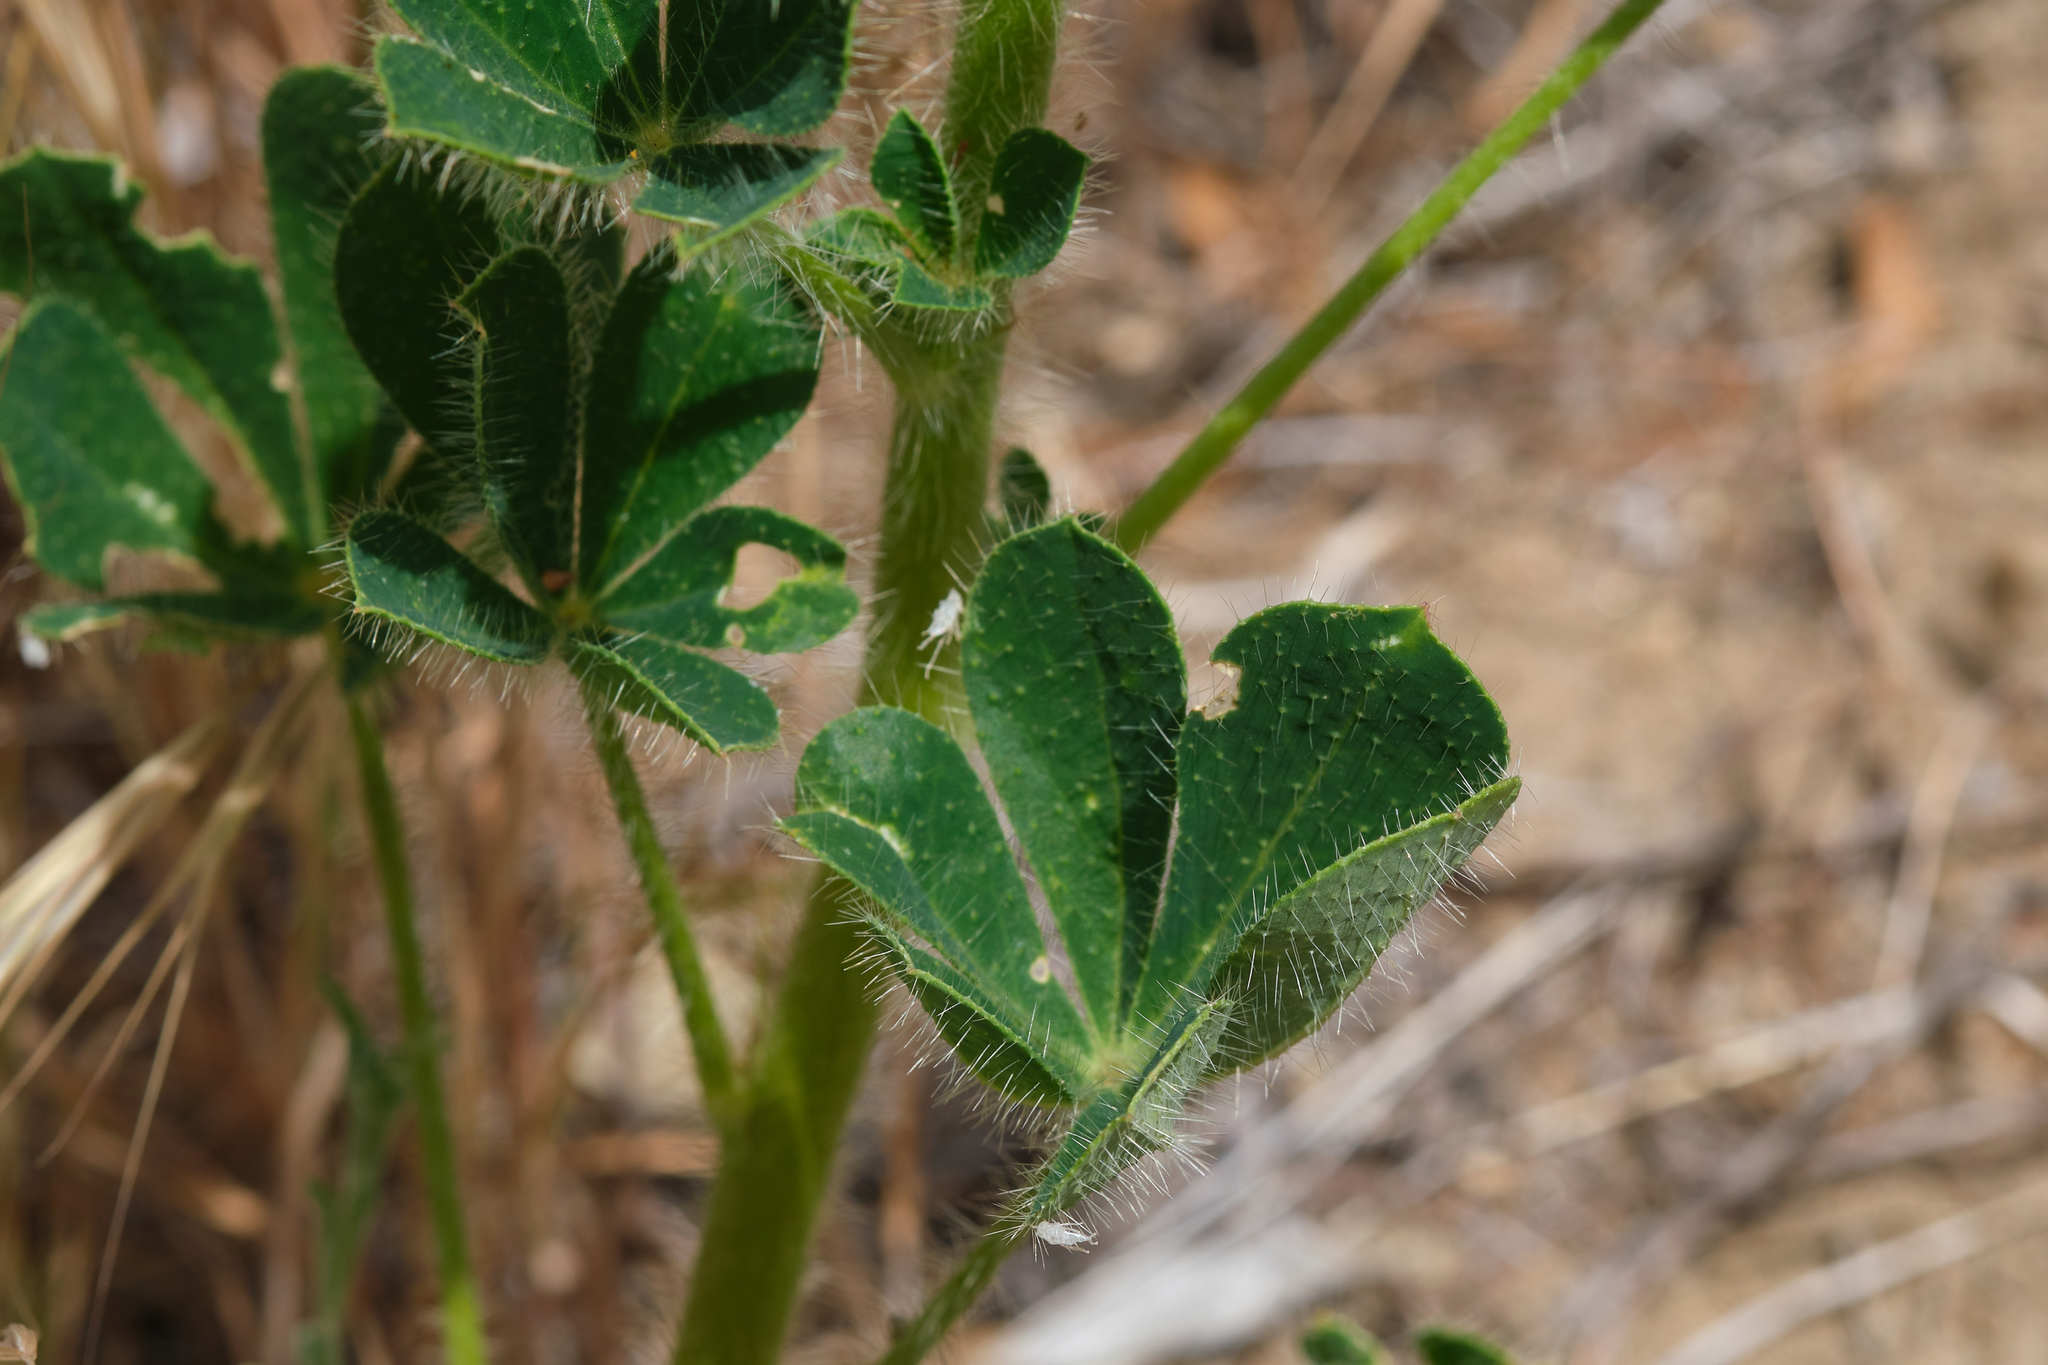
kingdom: Plantae
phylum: Tracheophyta
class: Magnoliopsida
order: Fabales
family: Fabaceae
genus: Lupinus
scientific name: Lupinus hirsutissimus
